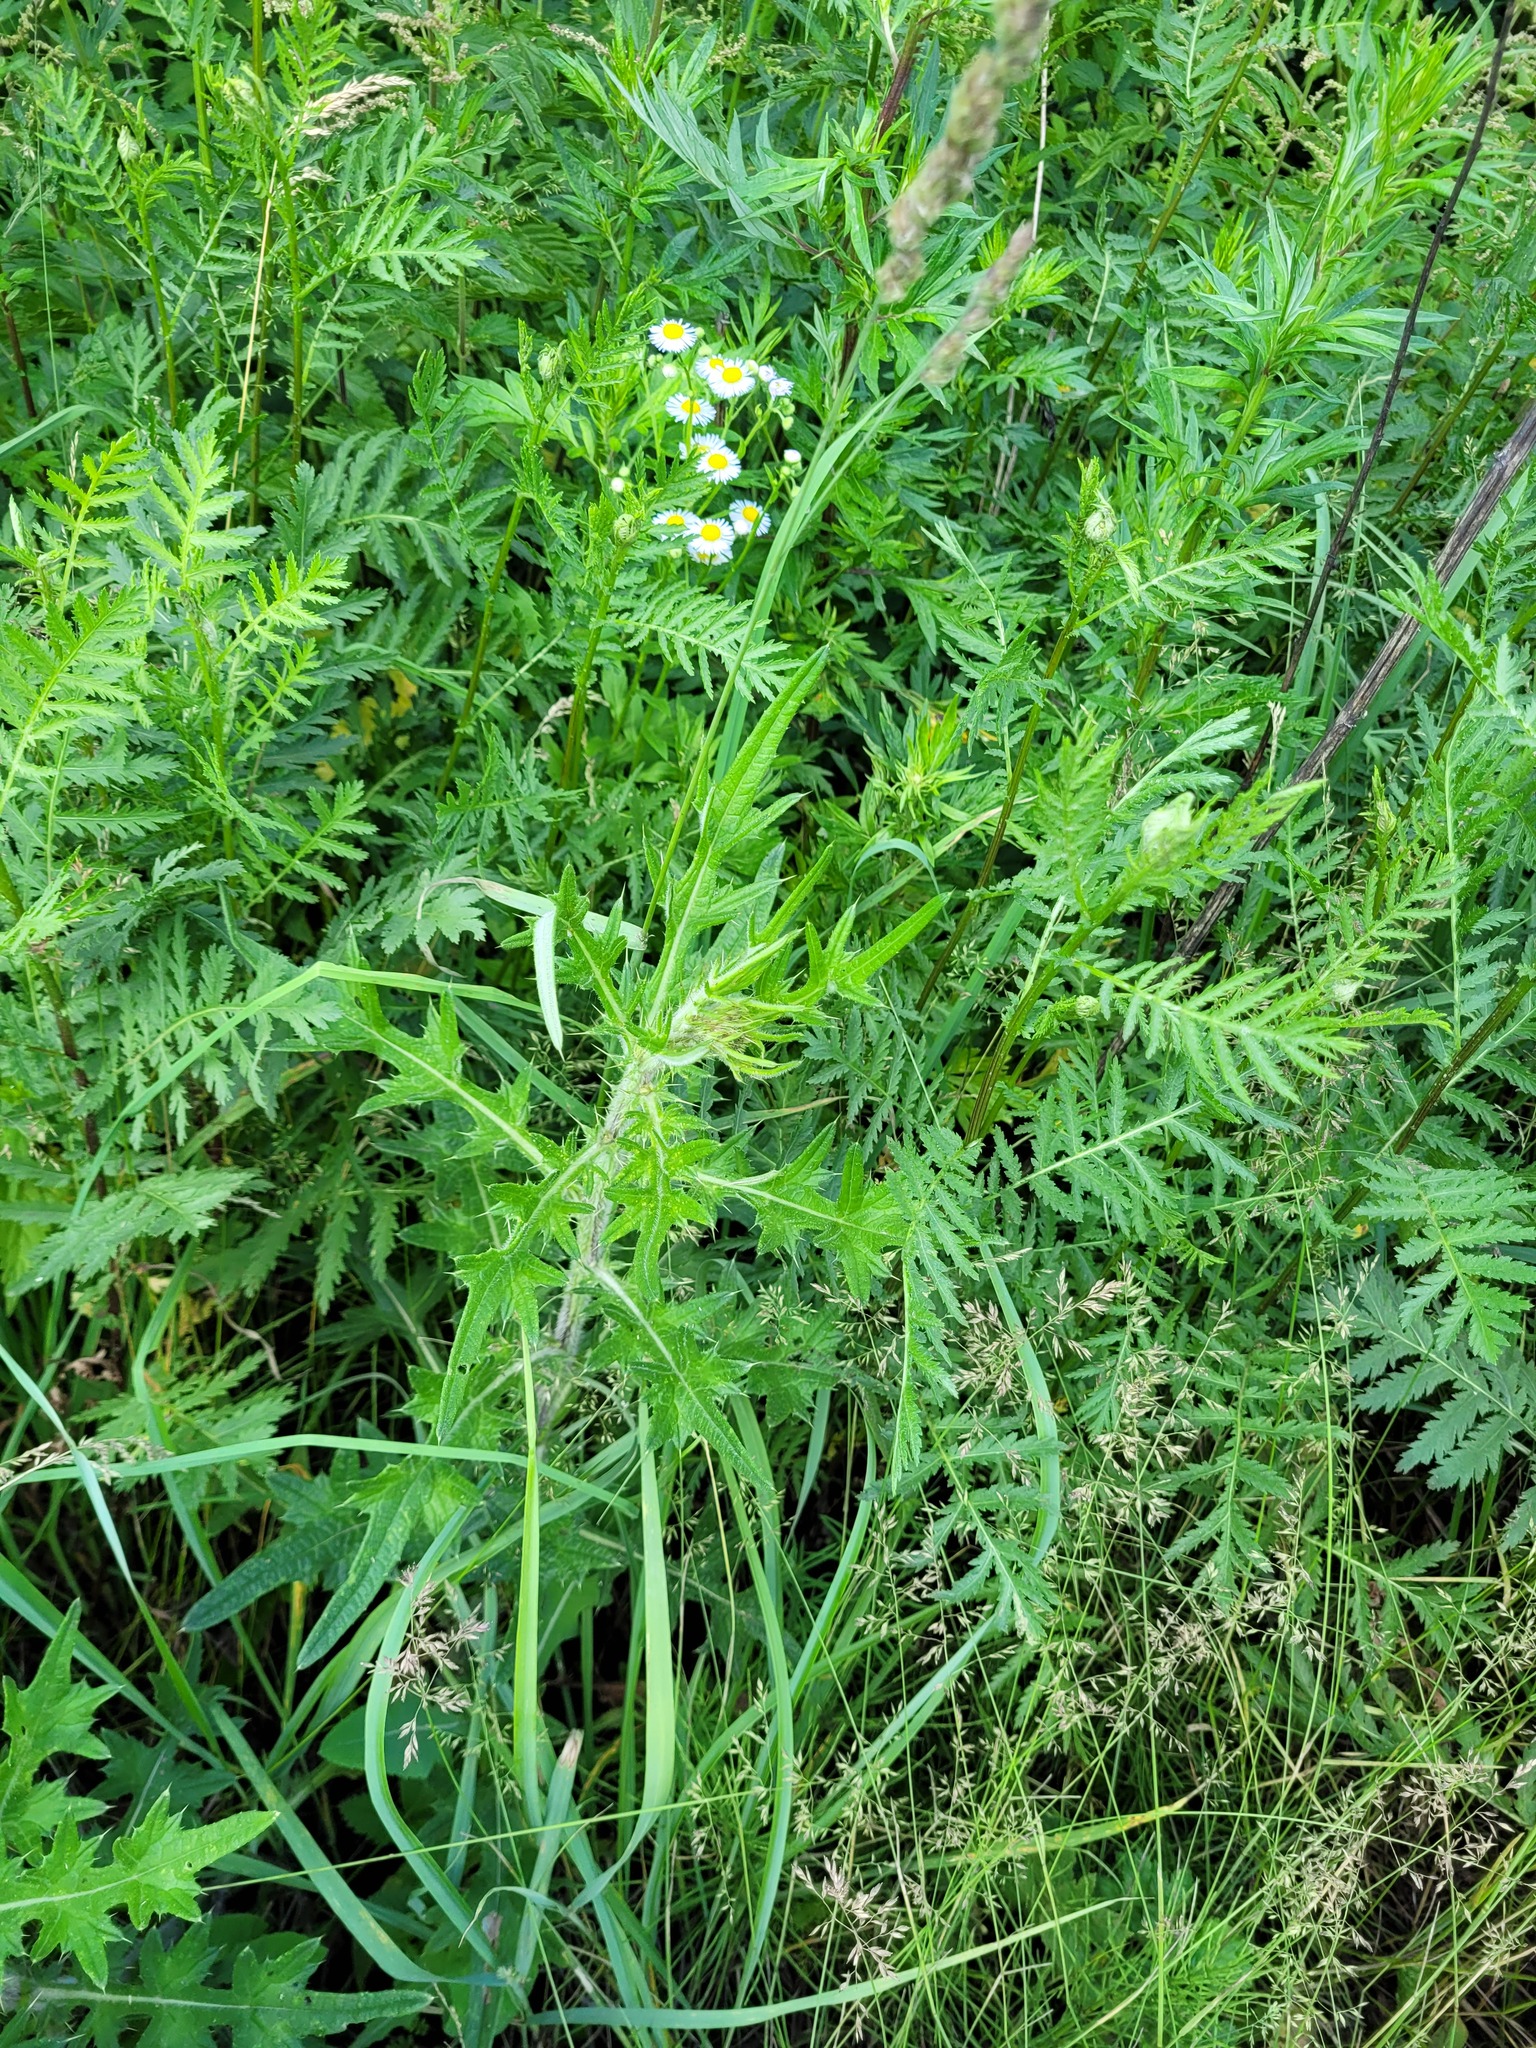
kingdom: Plantae
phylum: Tracheophyta
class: Magnoliopsida
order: Asterales
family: Asteraceae
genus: Cirsium
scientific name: Cirsium vulgare
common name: Bull thistle
